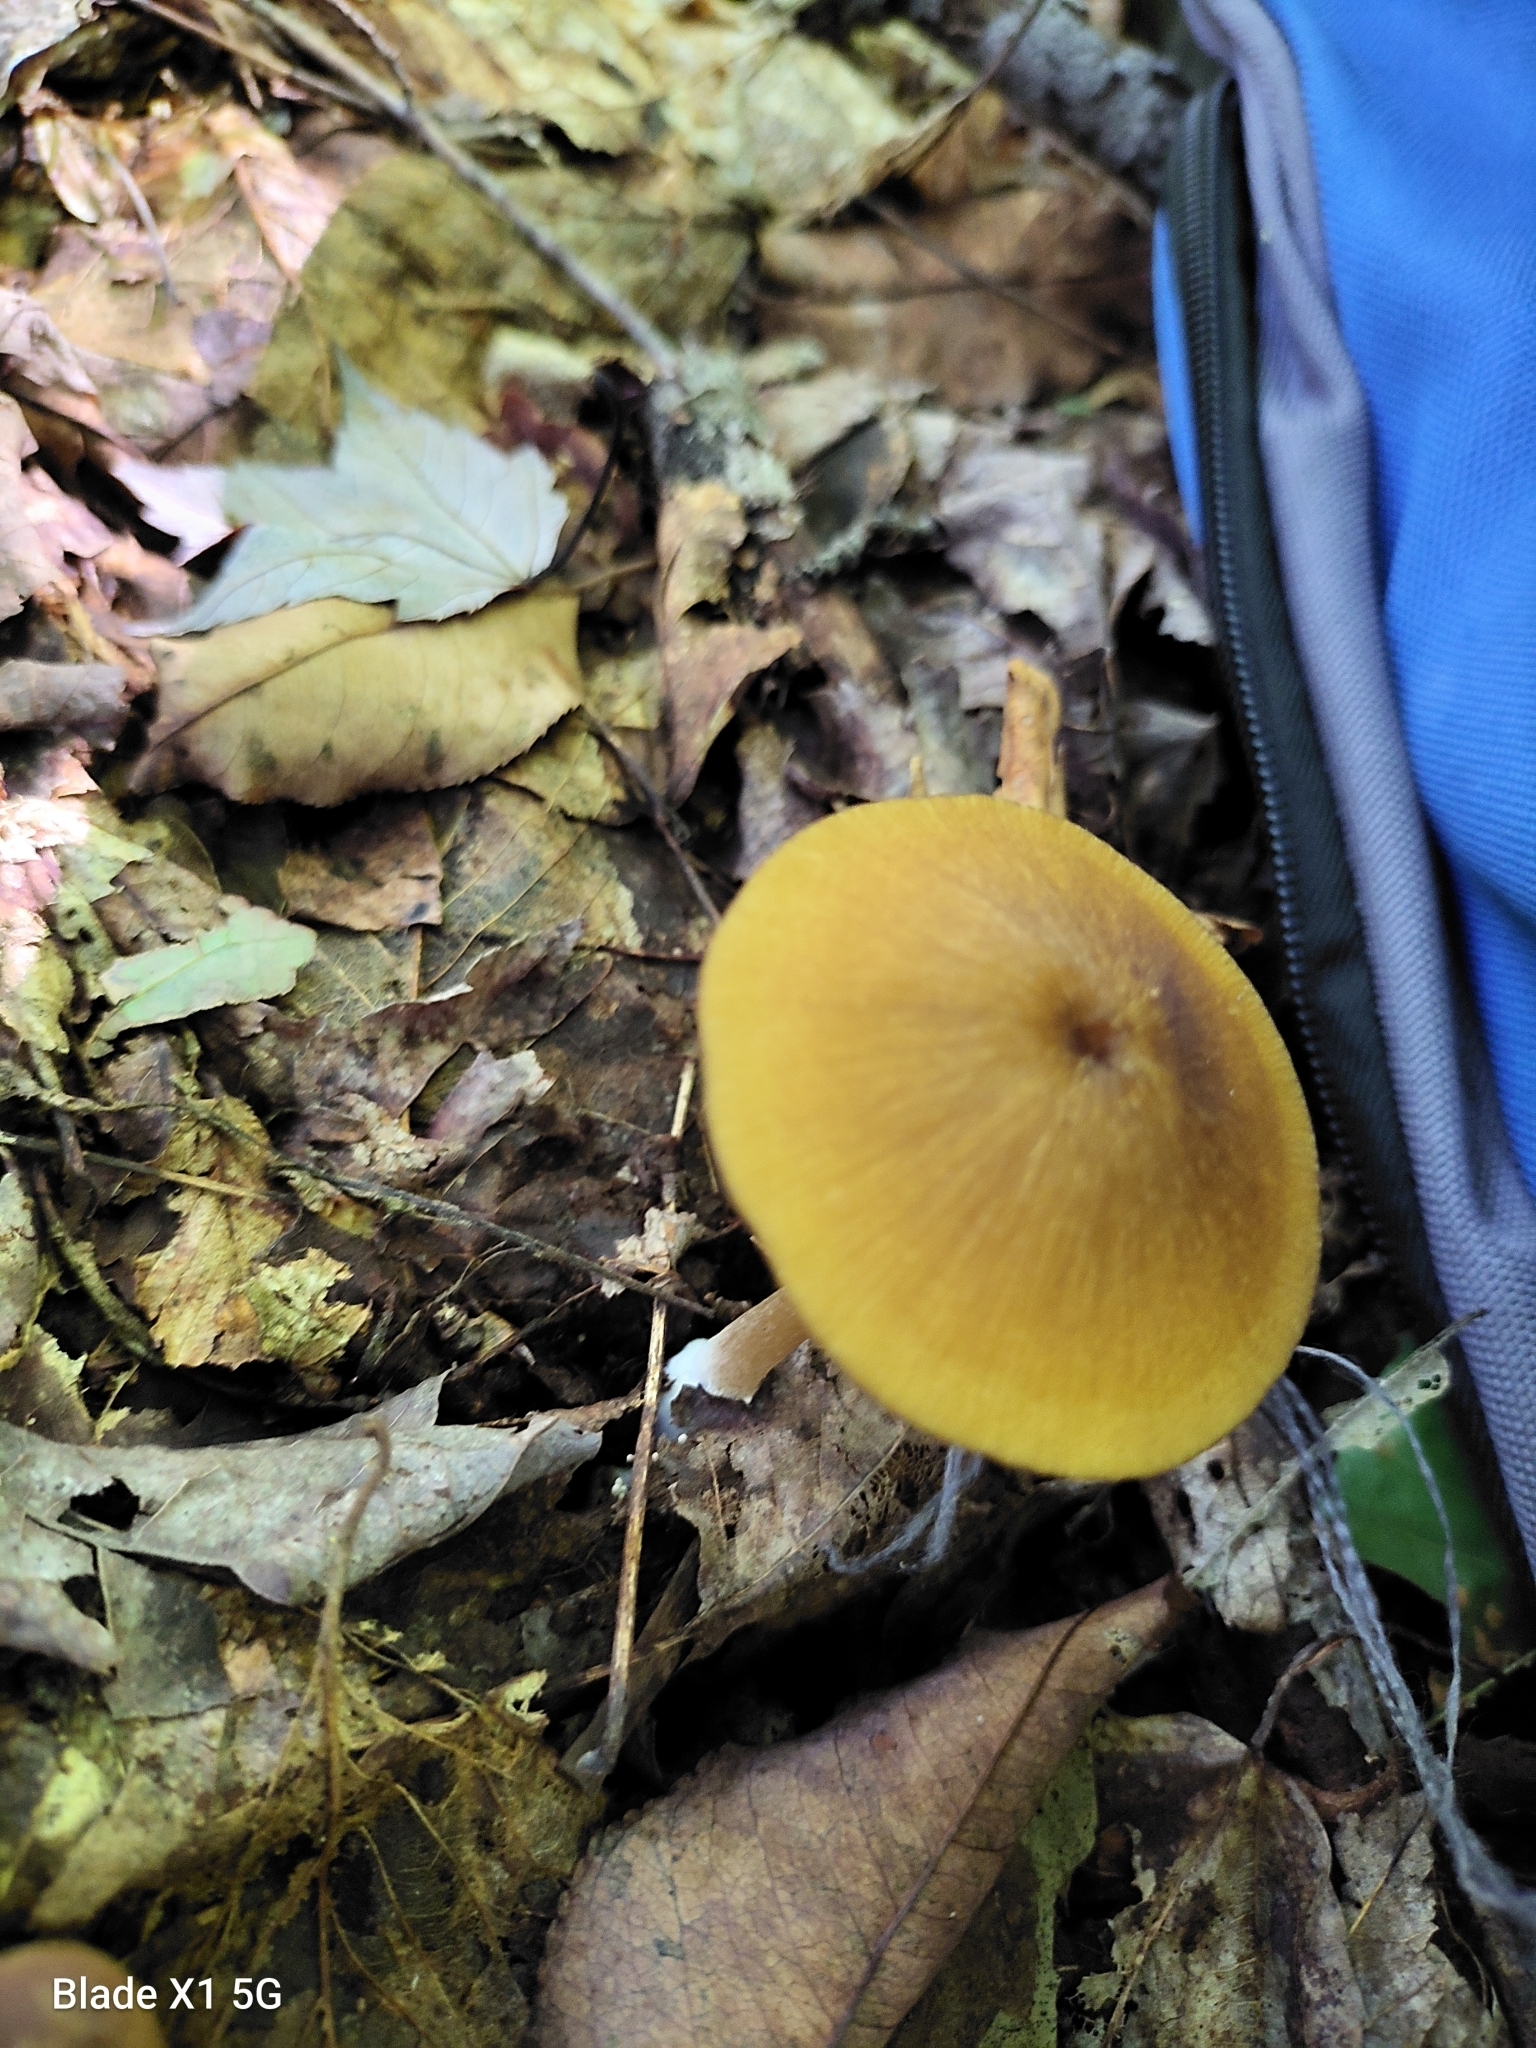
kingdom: Fungi
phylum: Basidiomycota
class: Agaricomycetes
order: Agaricales
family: Entolomataceae
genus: Entoloma
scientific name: Entoloma formosum
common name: Pretty pinkgill
